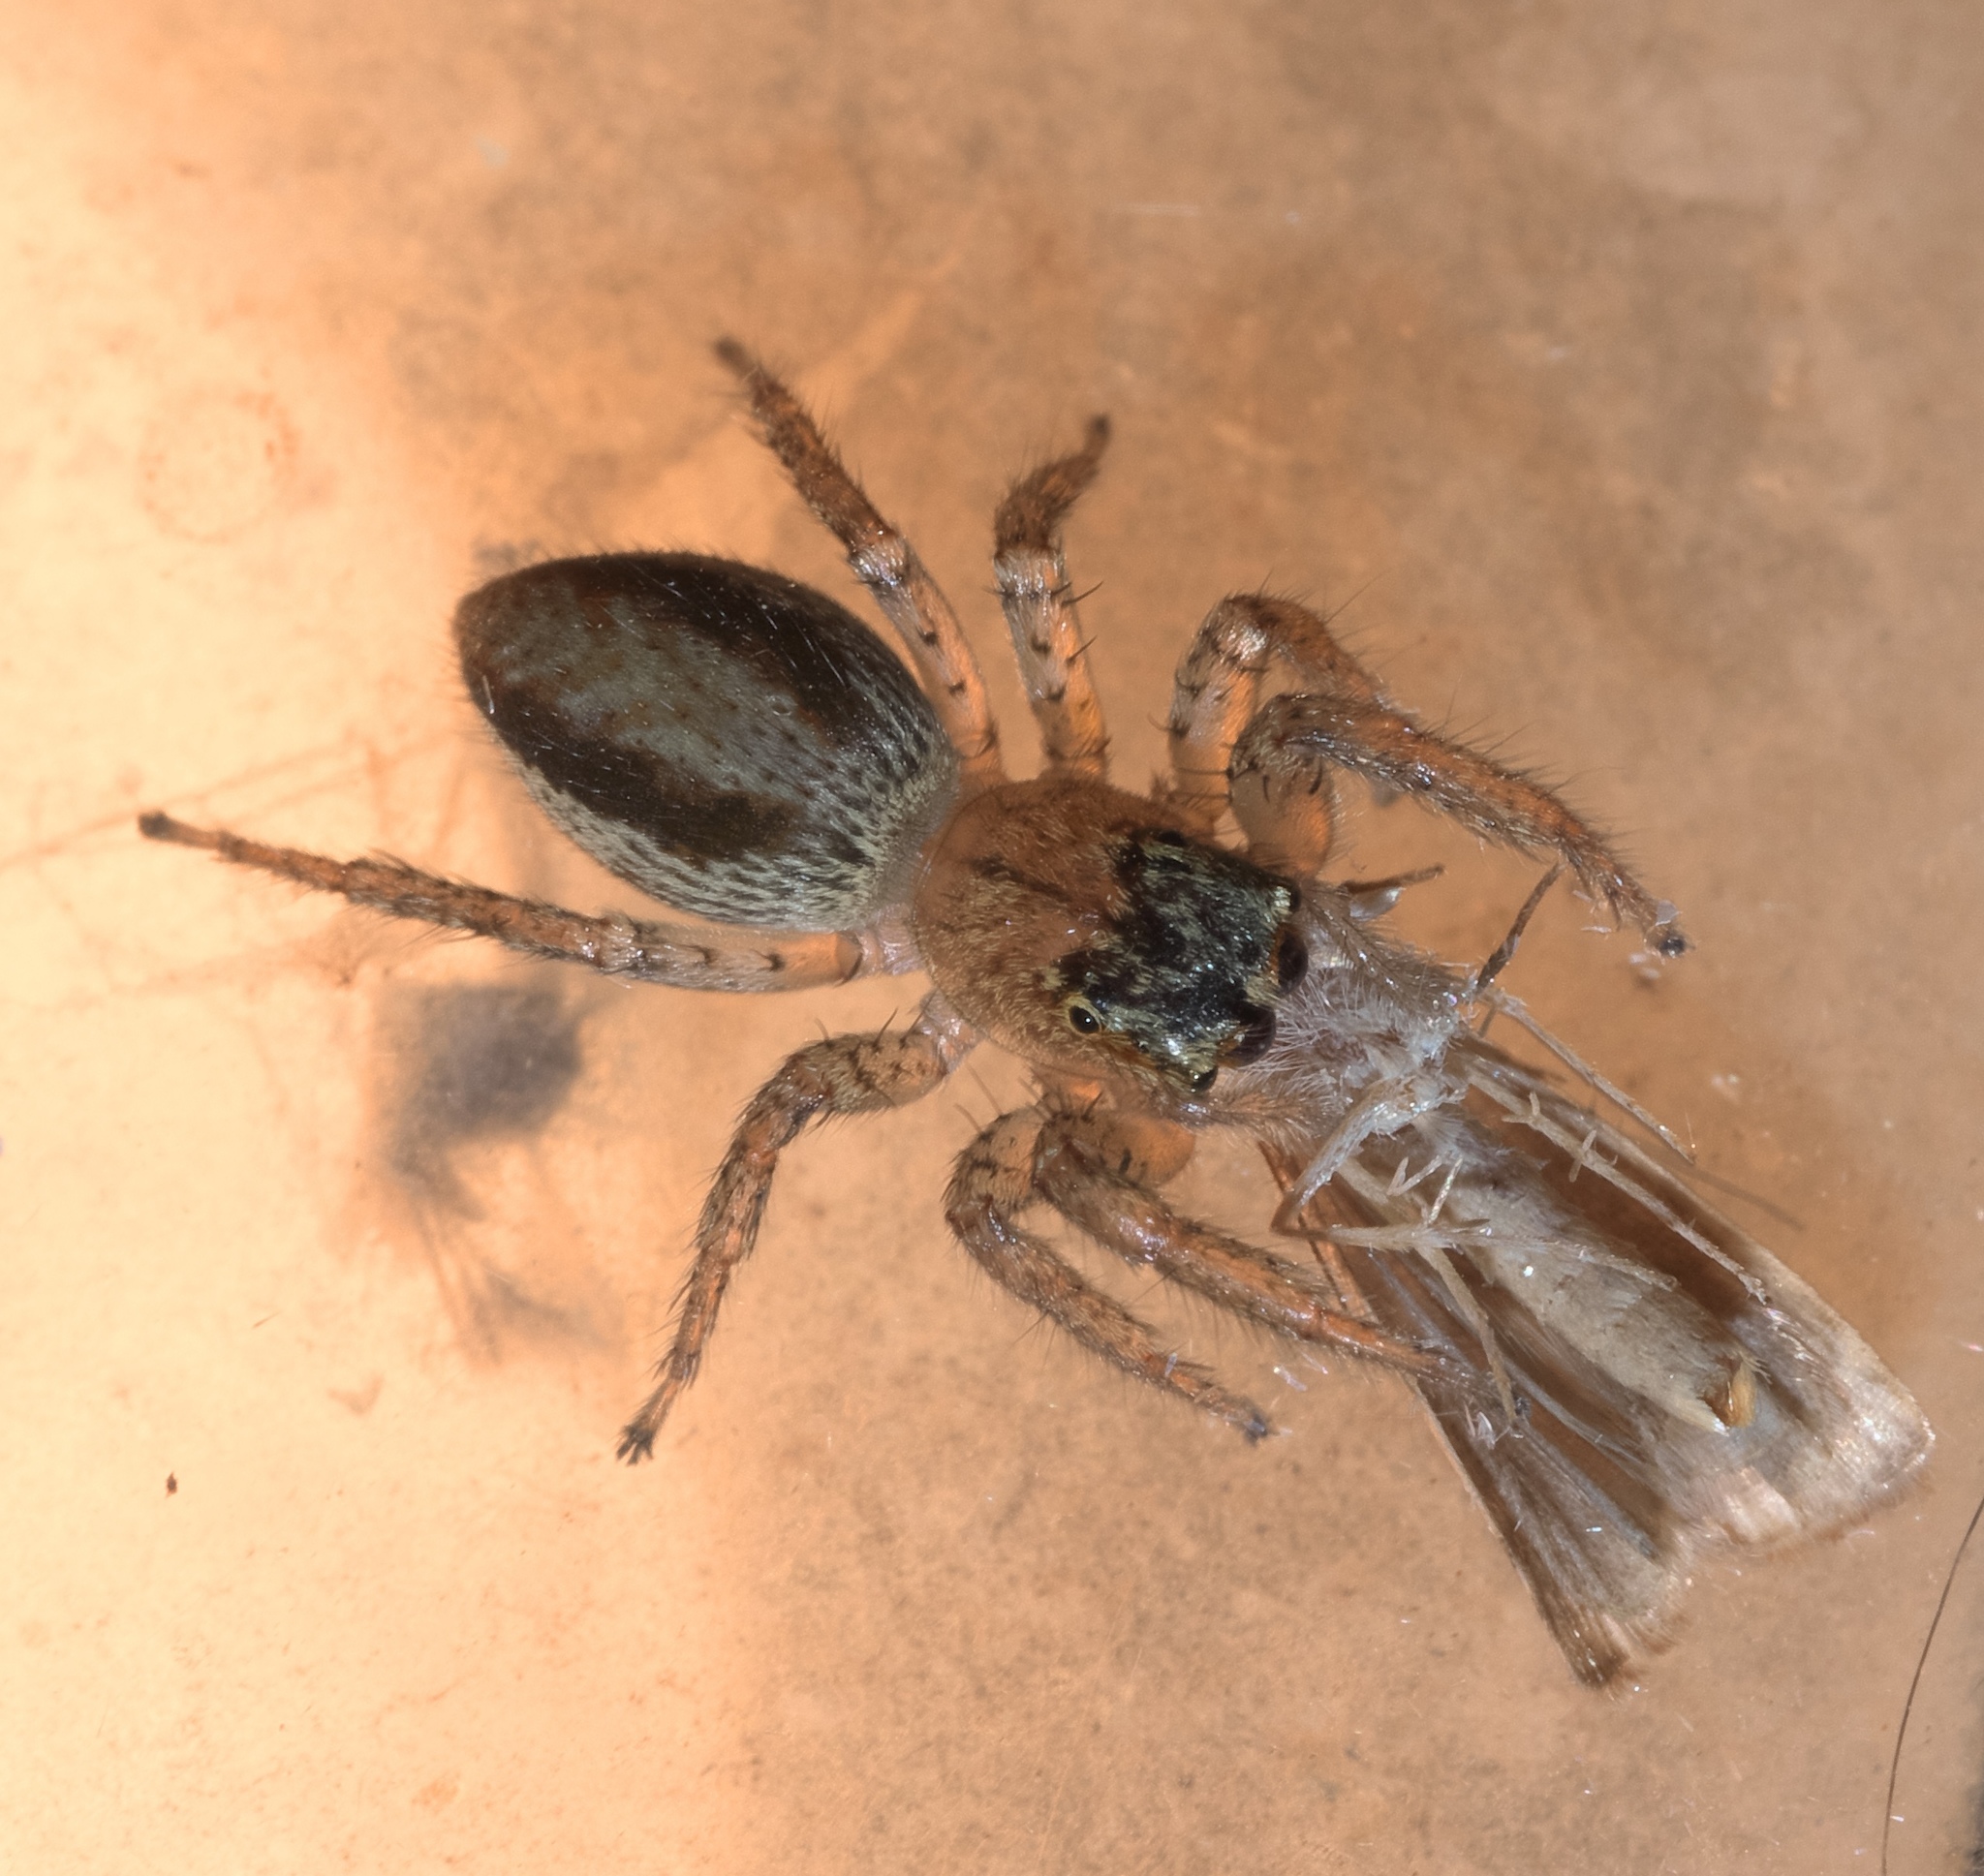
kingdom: Animalia
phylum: Arthropoda
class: Arachnida
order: Araneae
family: Salticidae
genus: Maevia
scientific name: Maevia inclemens
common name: Dimorphic jumper
